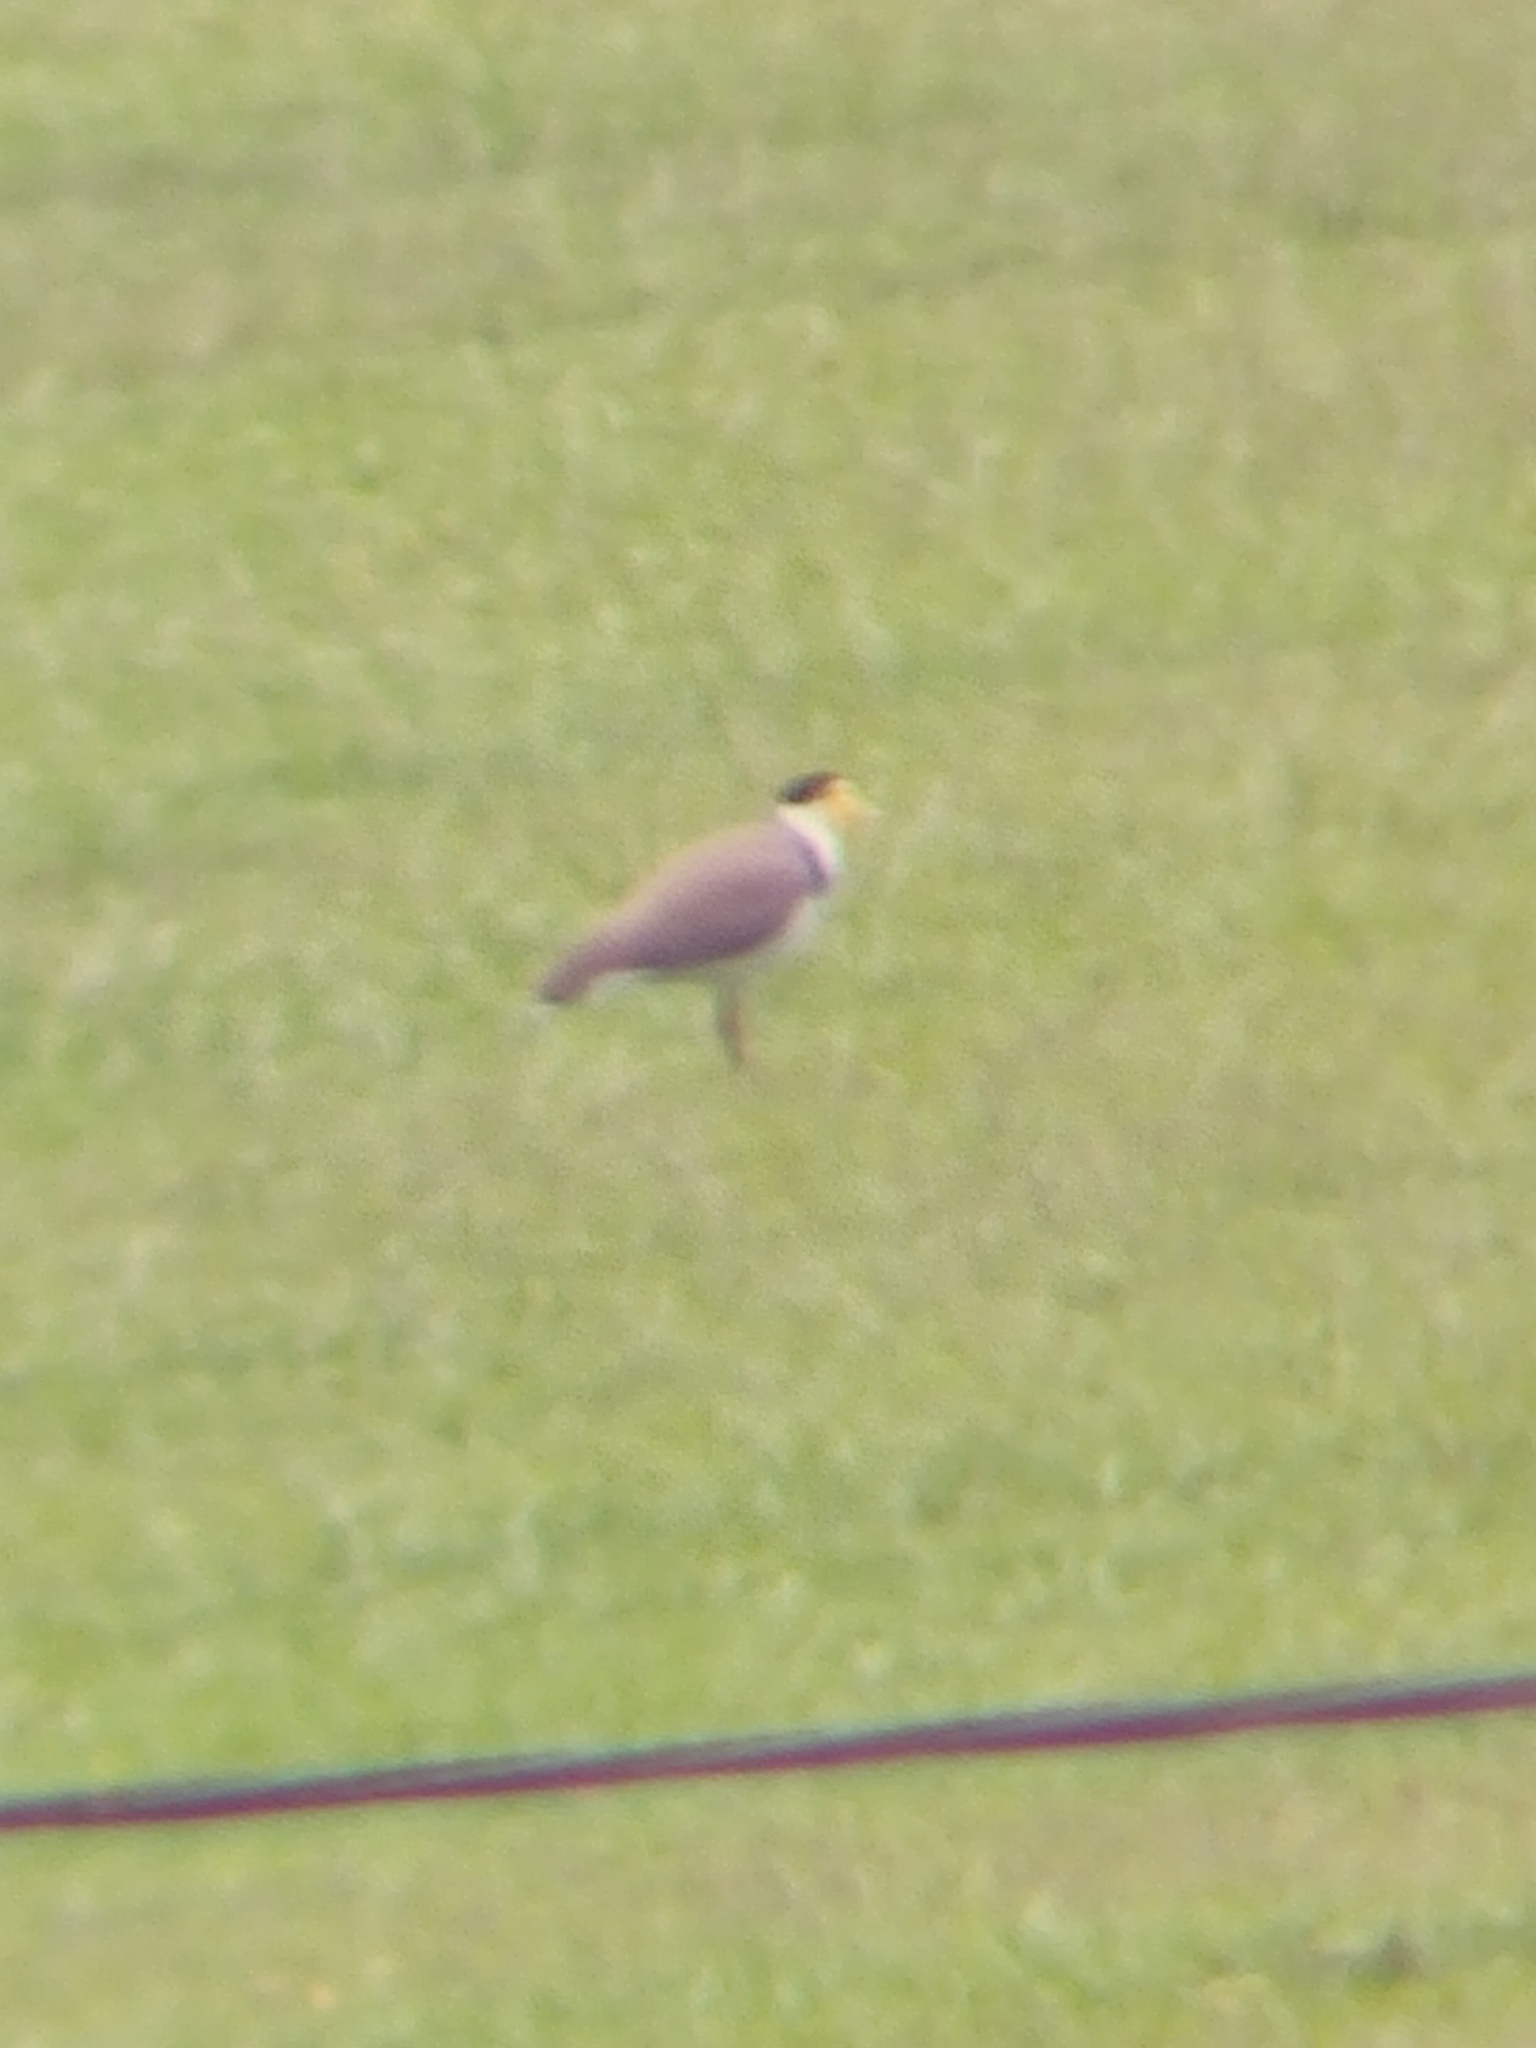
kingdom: Animalia
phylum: Chordata
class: Aves
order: Charadriiformes
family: Charadriidae
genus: Vanellus
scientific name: Vanellus miles
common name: Masked lapwing
